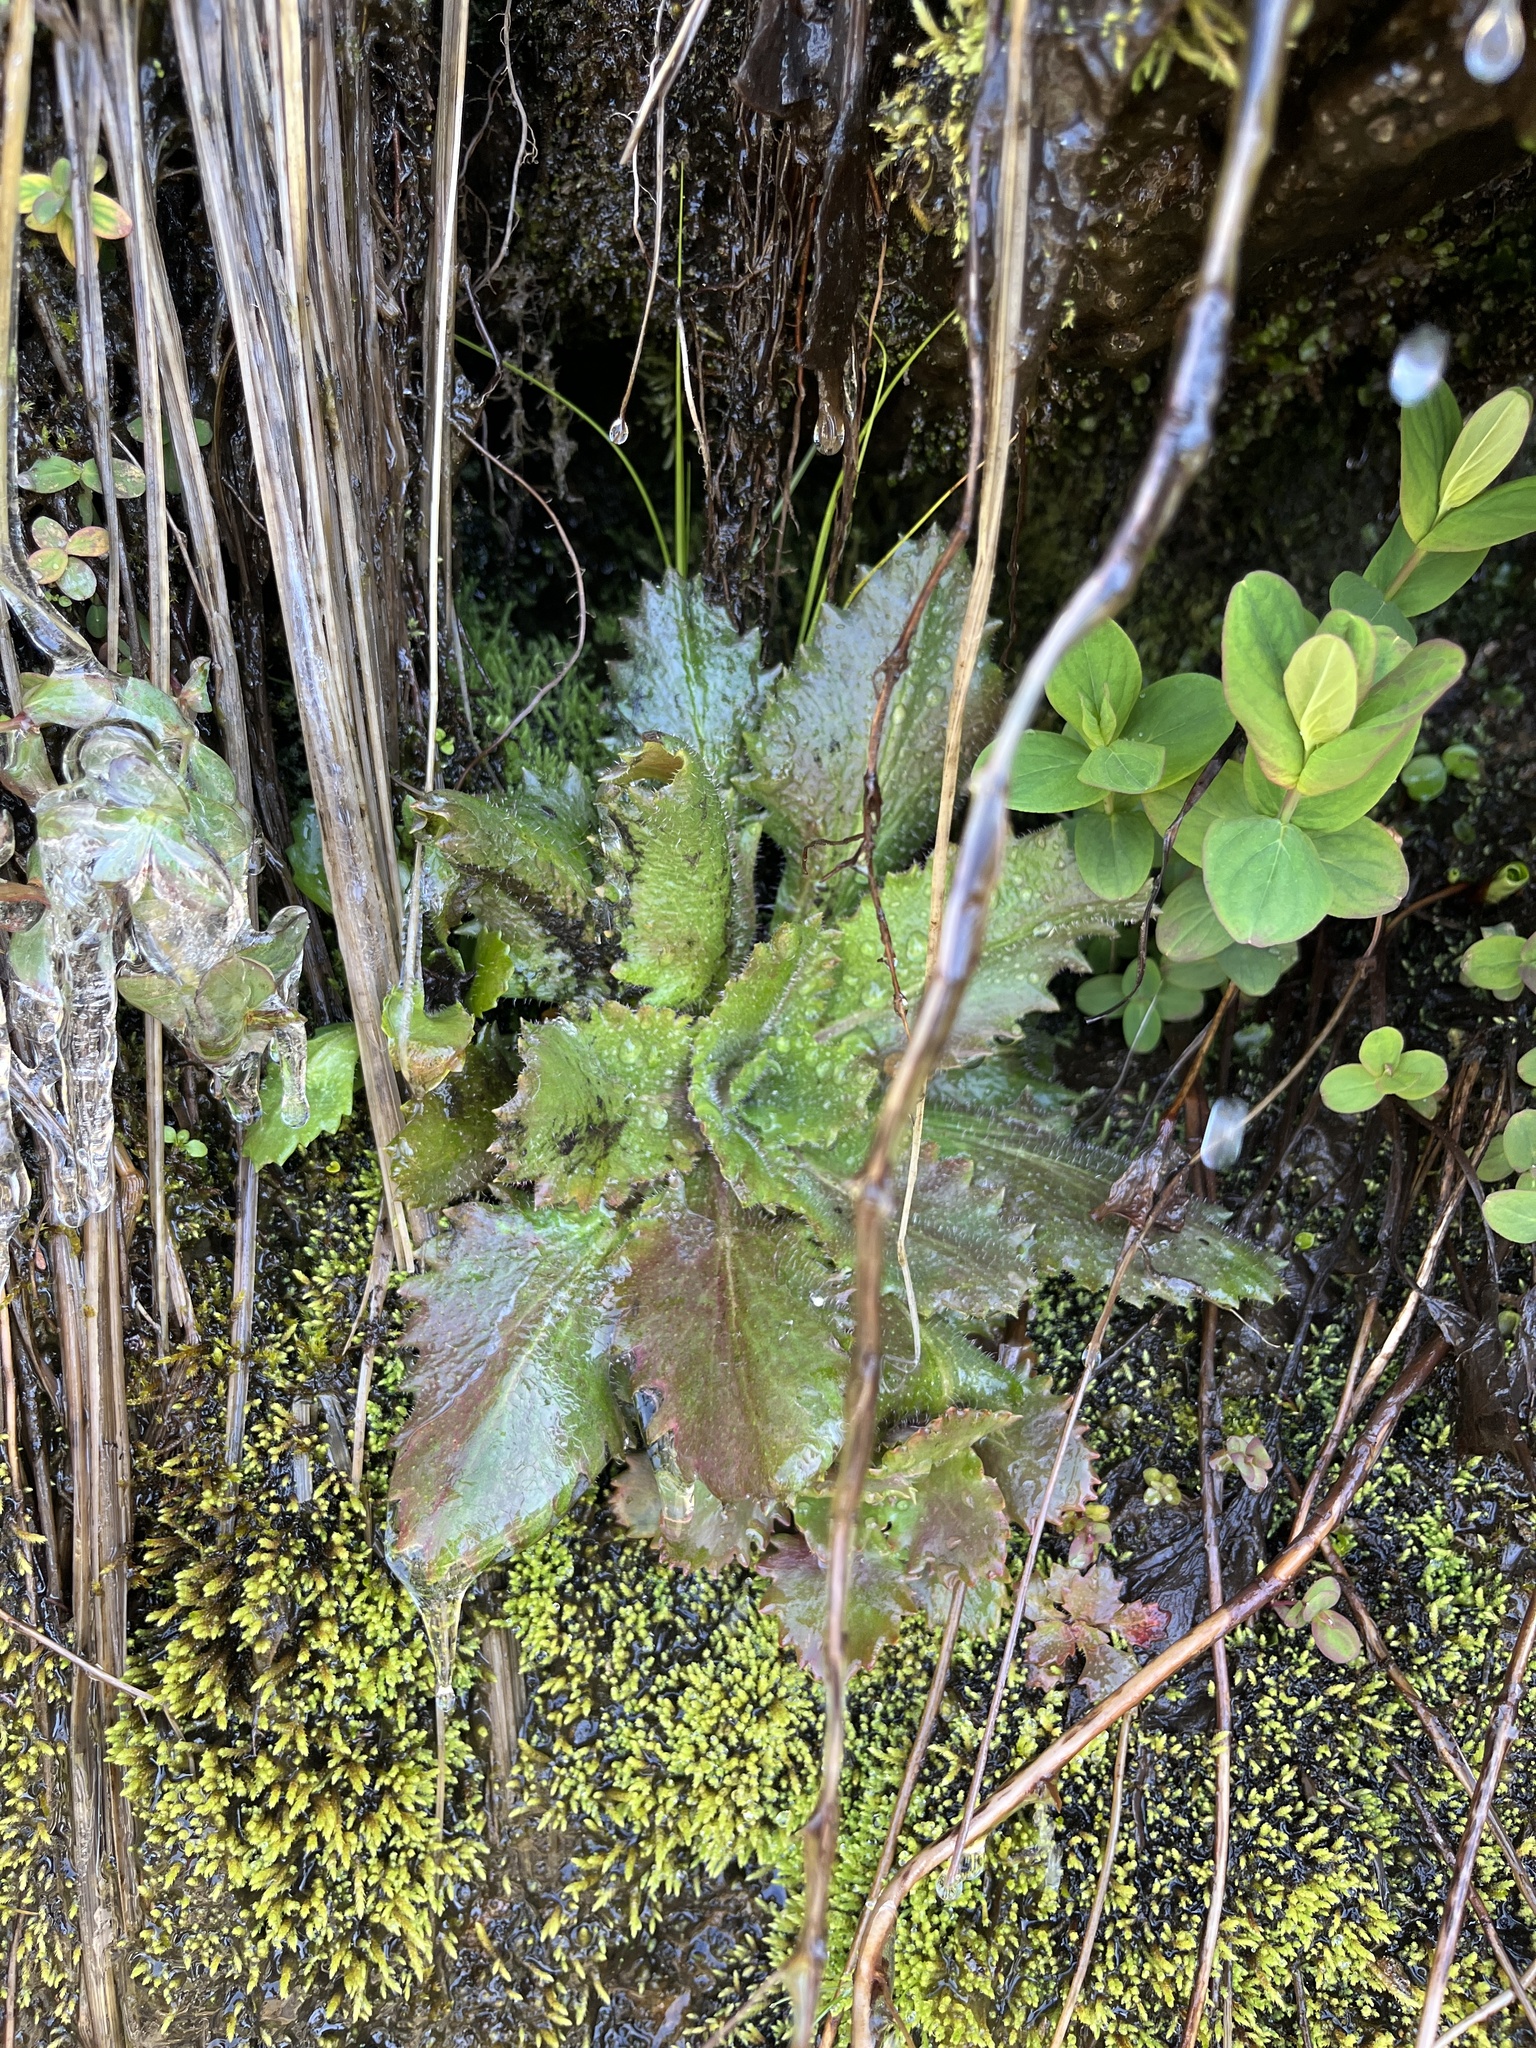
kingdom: Plantae
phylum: Tracheophyta
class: Magnoliopsida
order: Saxifragales
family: Saxifragaceae
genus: Micranthes
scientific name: Micranthes petiolaris
